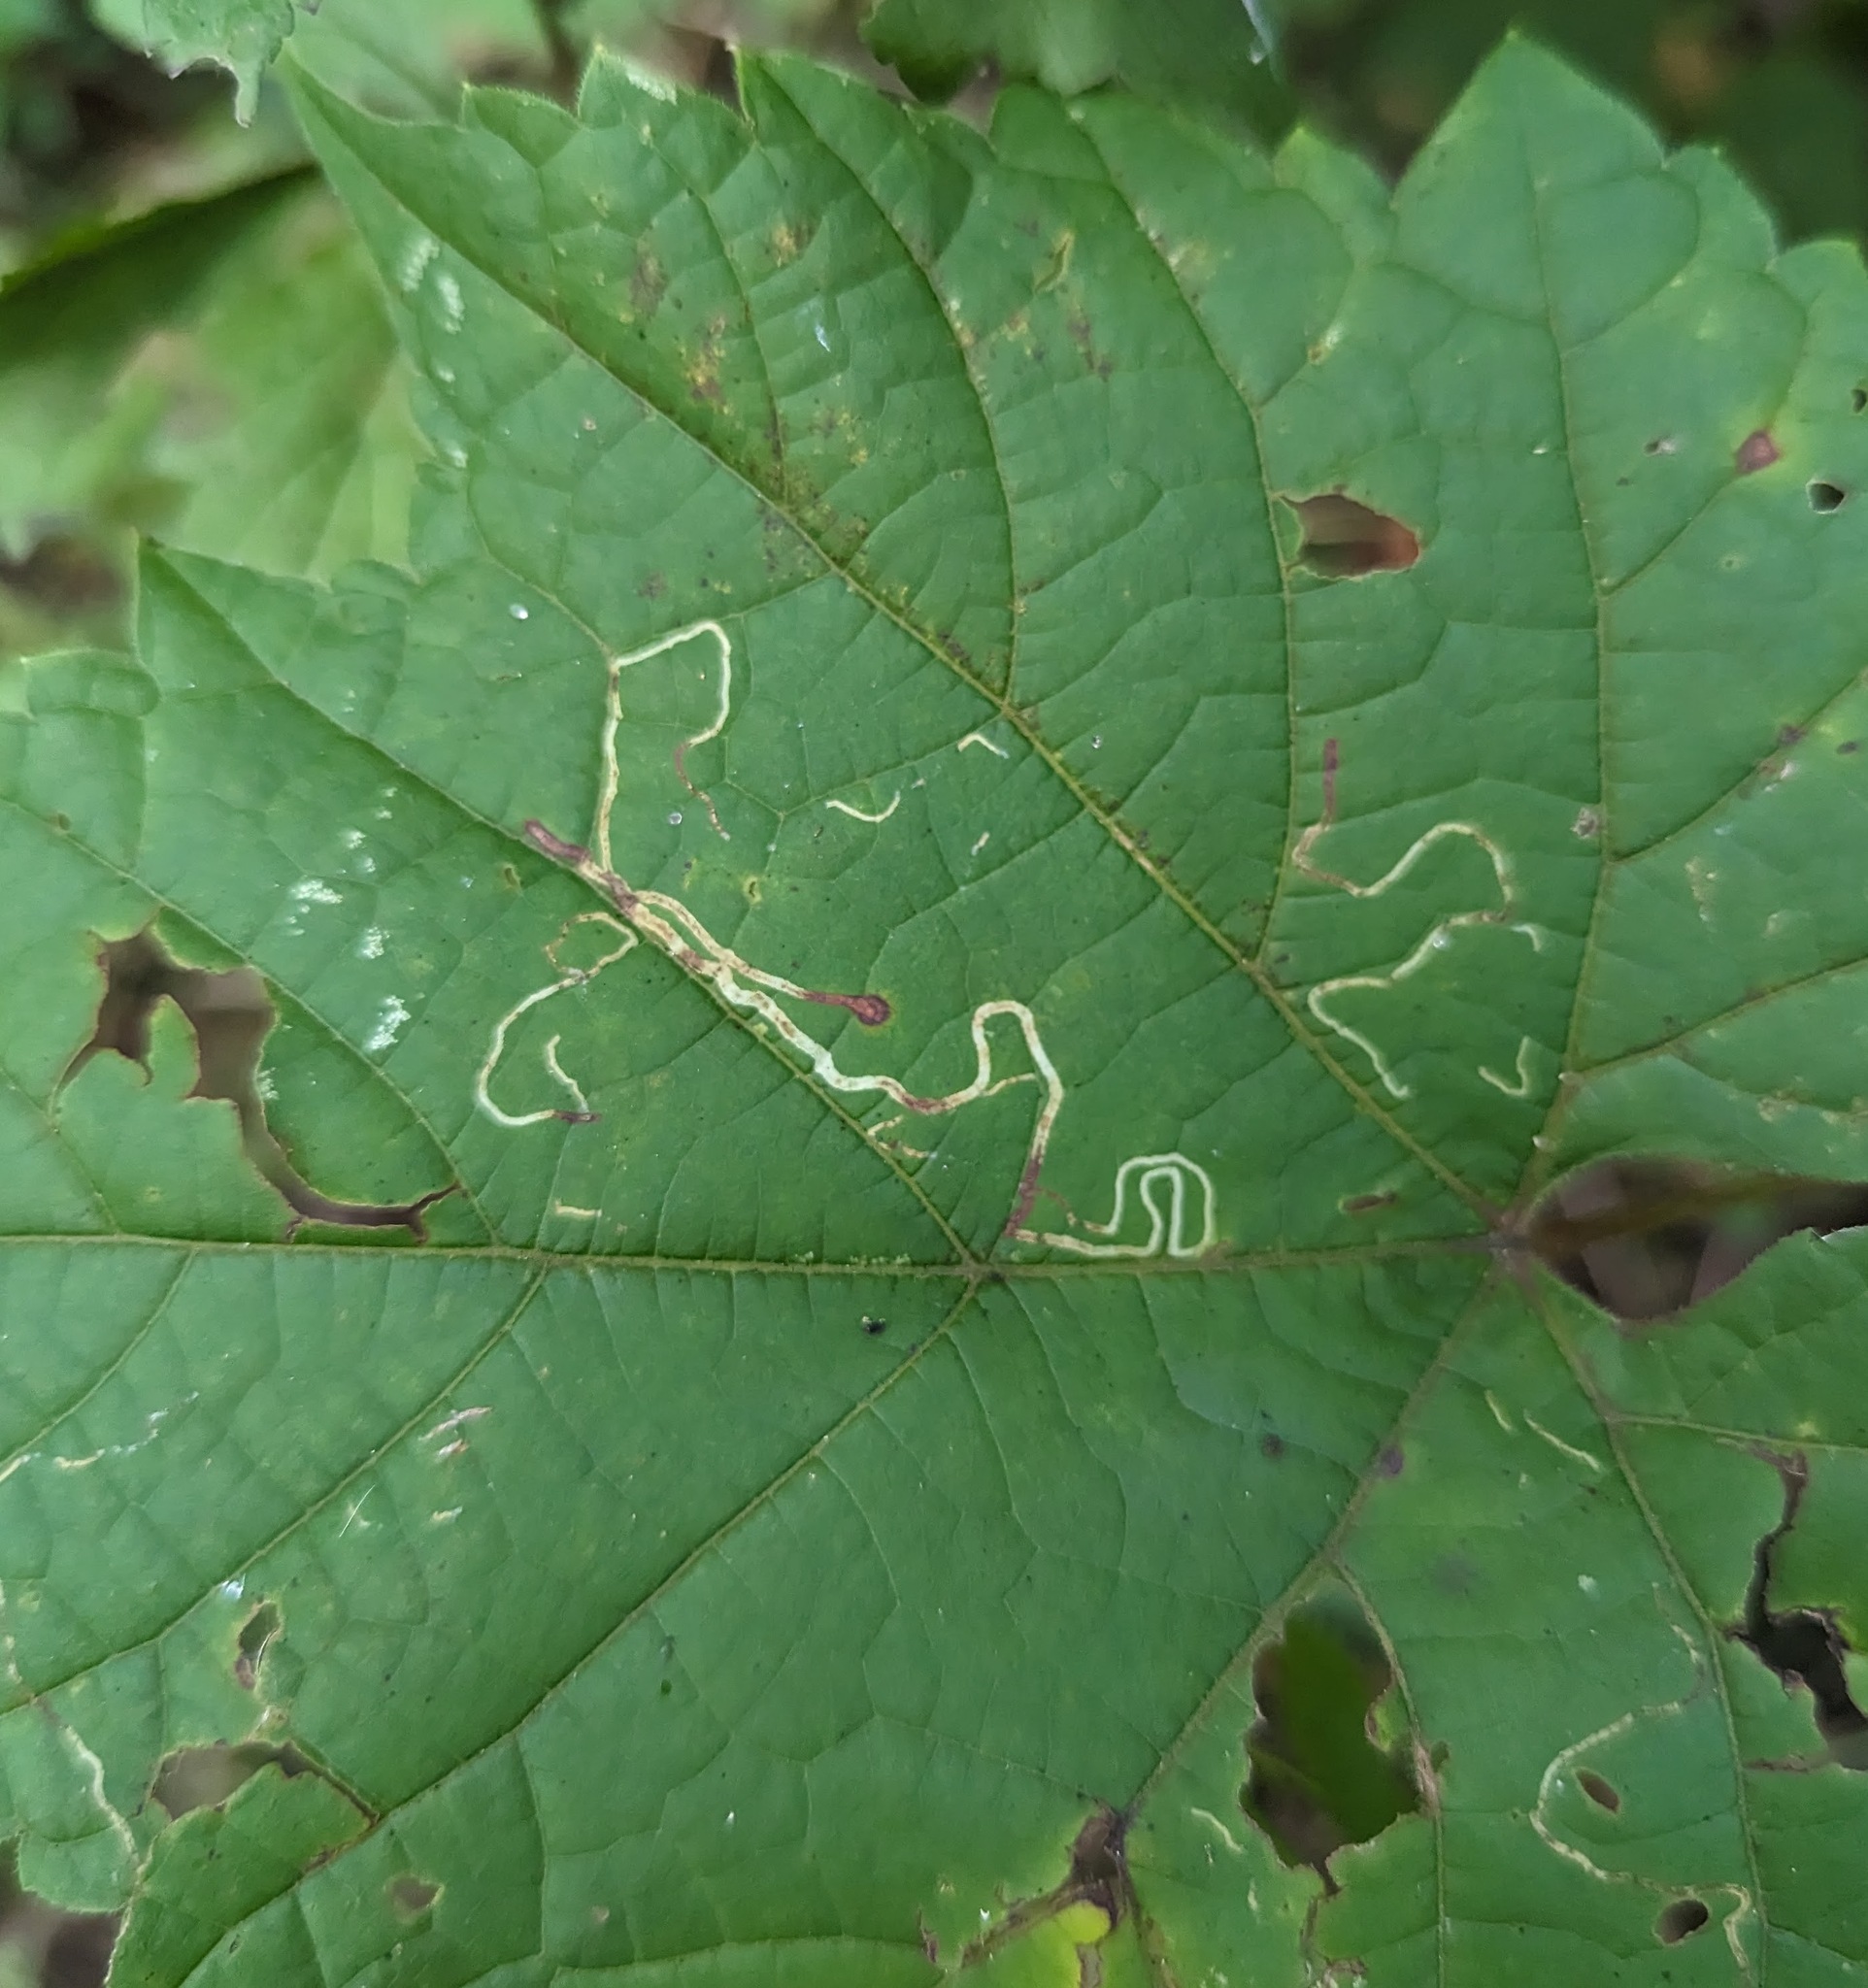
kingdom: Animalia
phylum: Arthropoda
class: Insecta
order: Lepidoptera
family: Gracillariidae
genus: Phyllocnistis
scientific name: Phyllocnistis vitifoliella
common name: Grape leaf-miner moth
